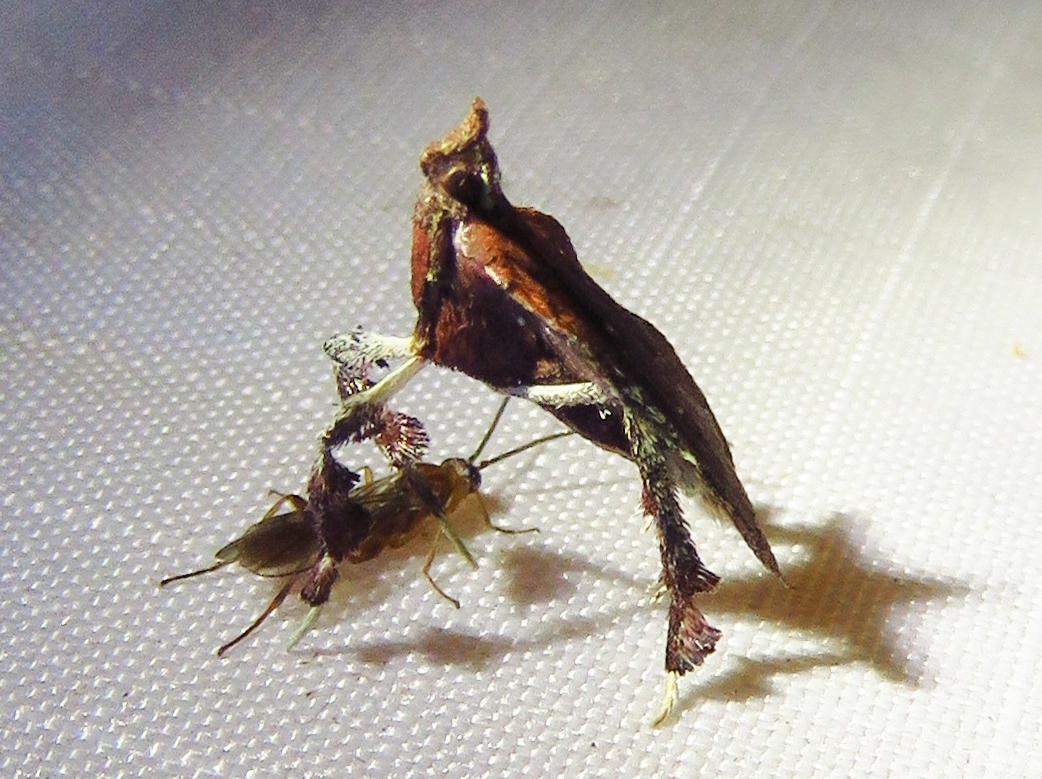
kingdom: Animalia
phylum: Arthropoda
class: Insecta
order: Lepidoptera
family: Pyralidae
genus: Galasa
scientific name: Galasa nigrinodis
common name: Boxwood leaftier moth
